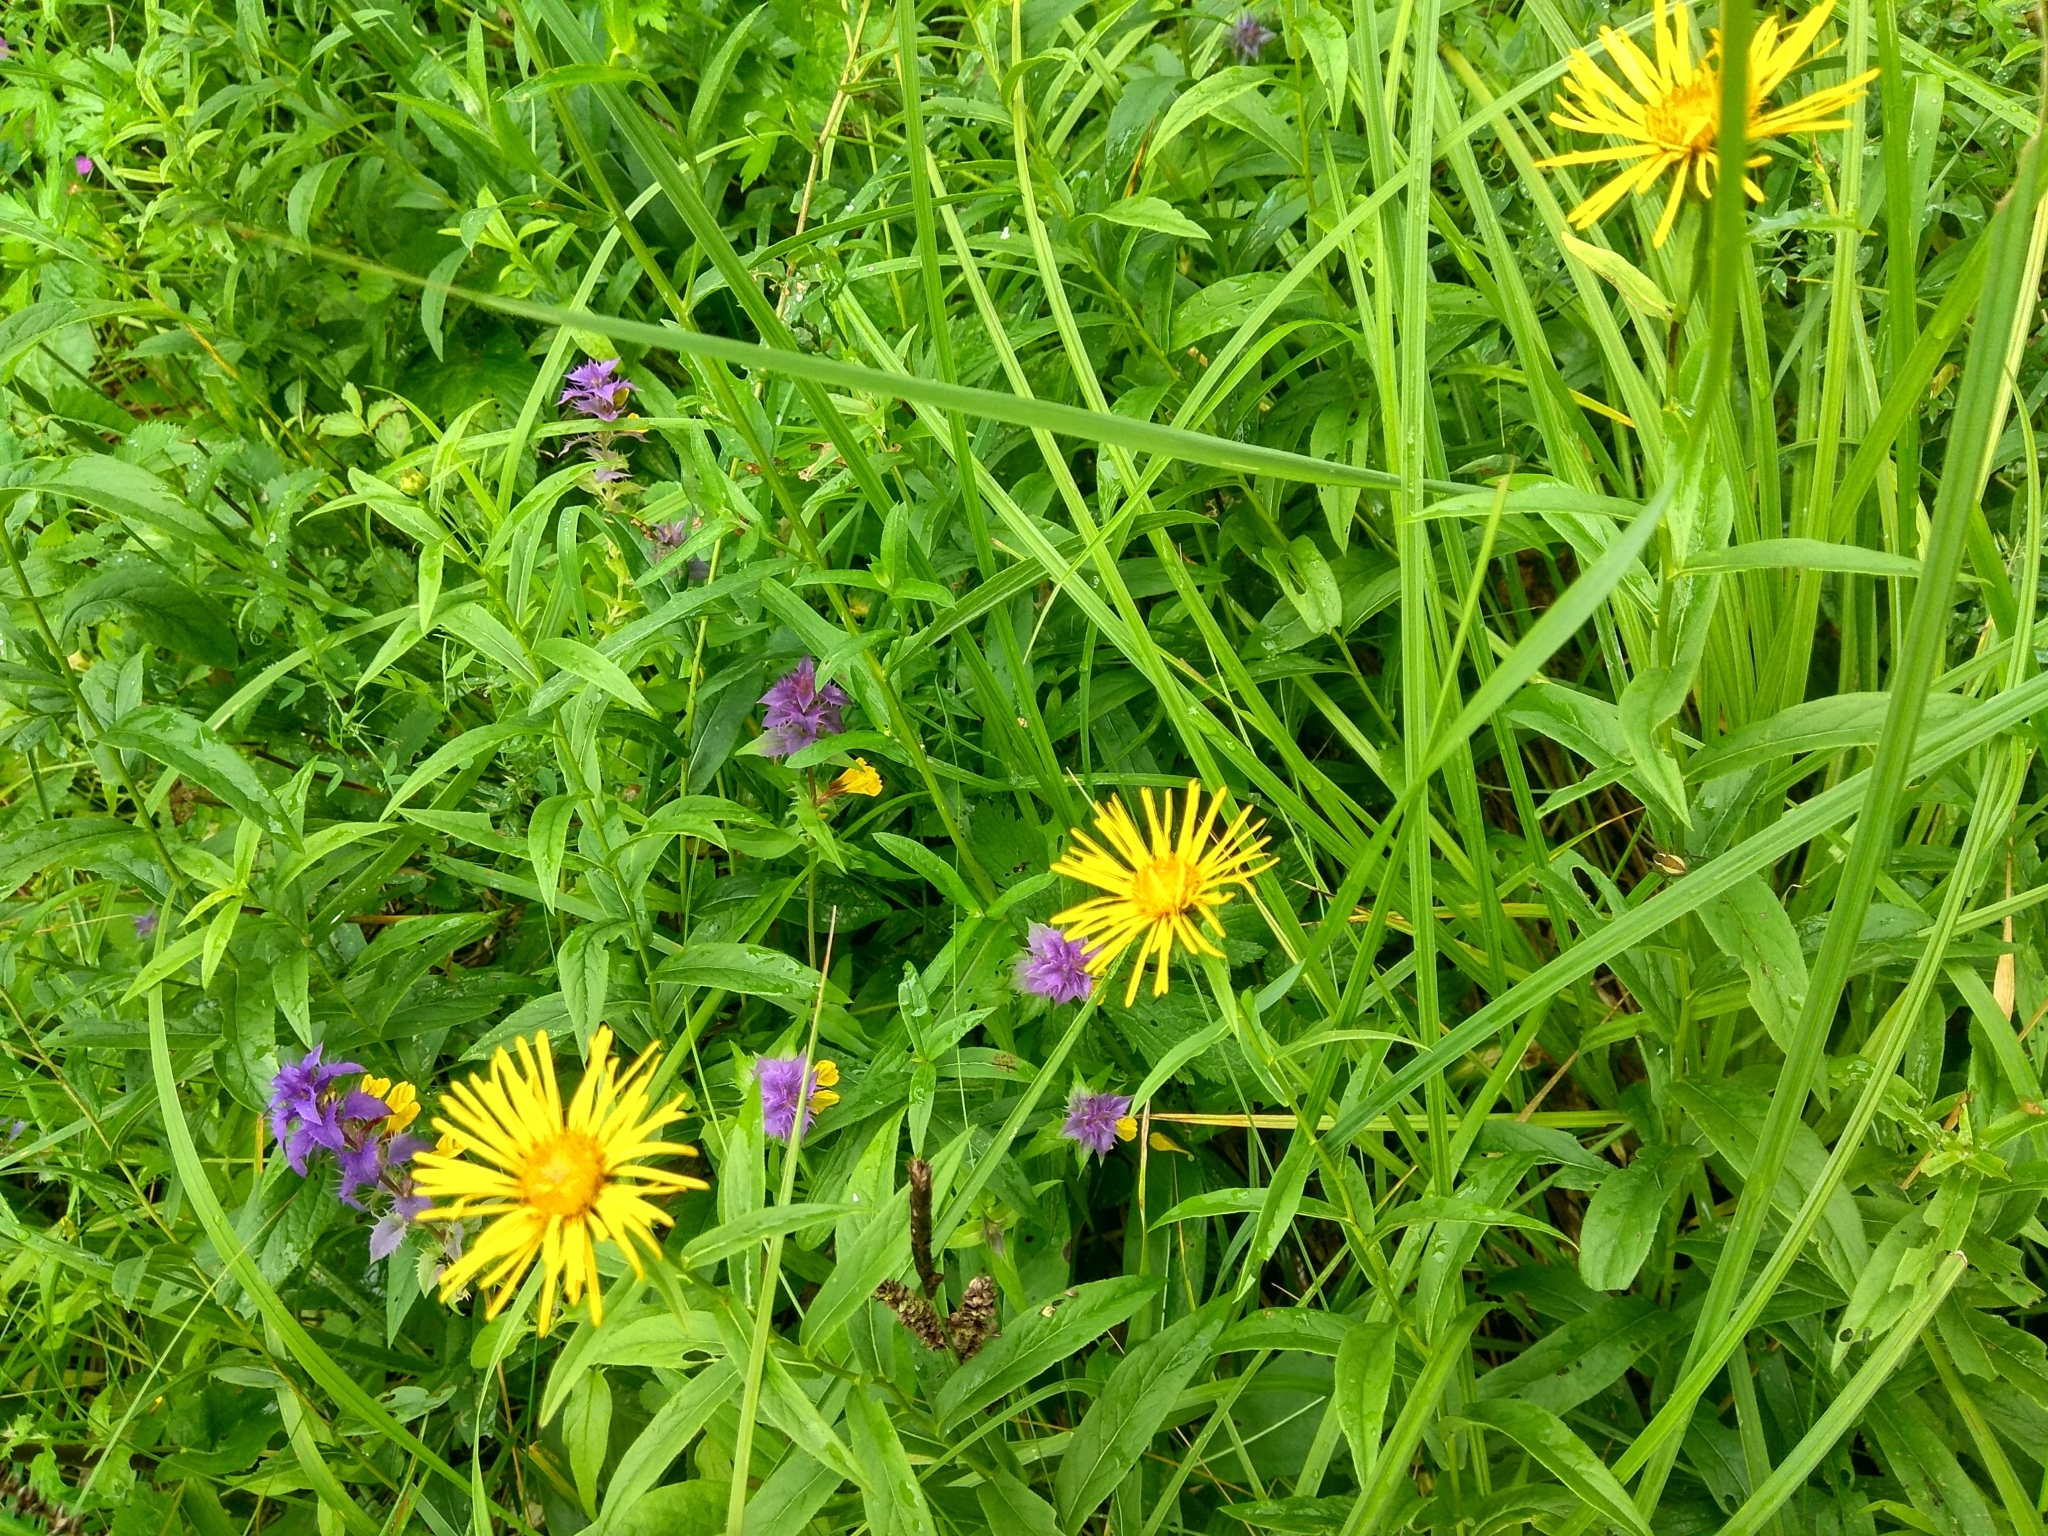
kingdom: Plantae
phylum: Tracheophyta
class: Magnoliopsida
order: Asterales
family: Asteraceae
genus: Pentanema
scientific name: Pentanema salicinum
